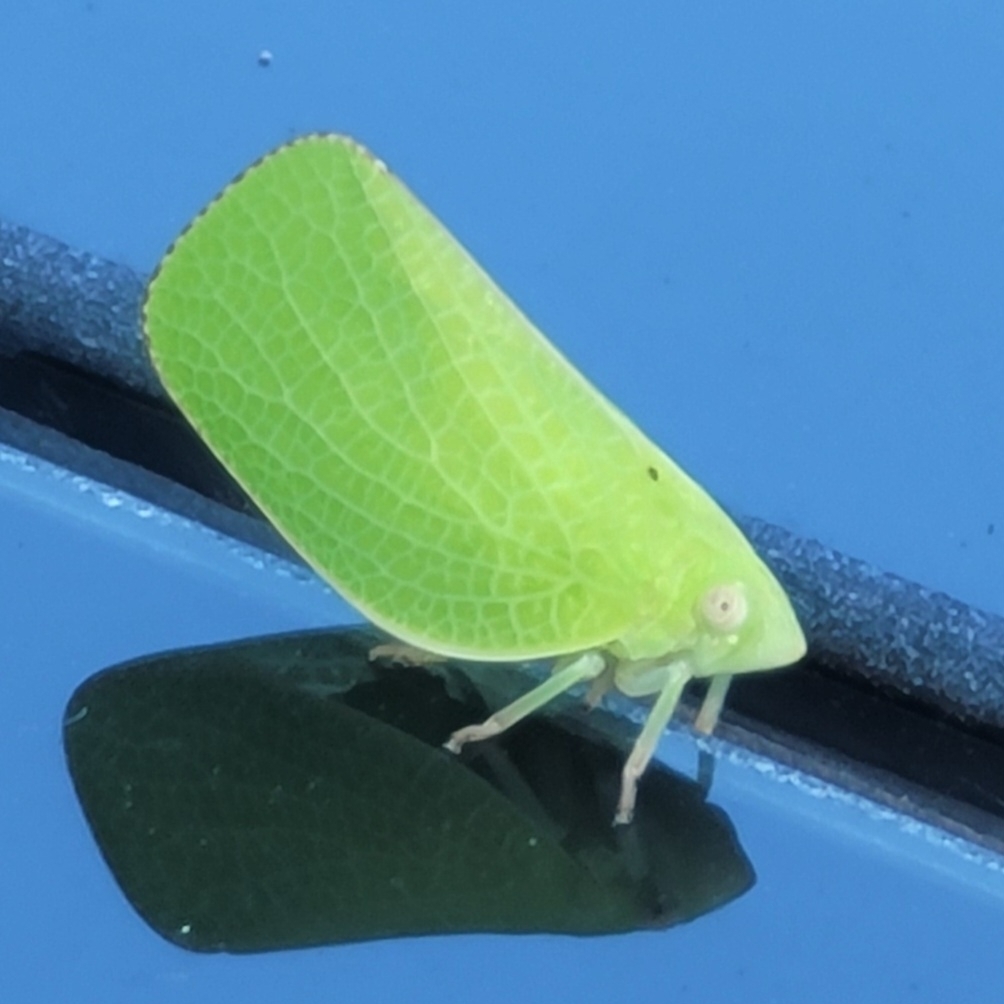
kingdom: Animalia
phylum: Arthropoda
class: Insecta
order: Hemiptera
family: Acanaloniidae
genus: Acanalonia
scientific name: Acanalonia conica
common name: Green cone-headed planthopper
